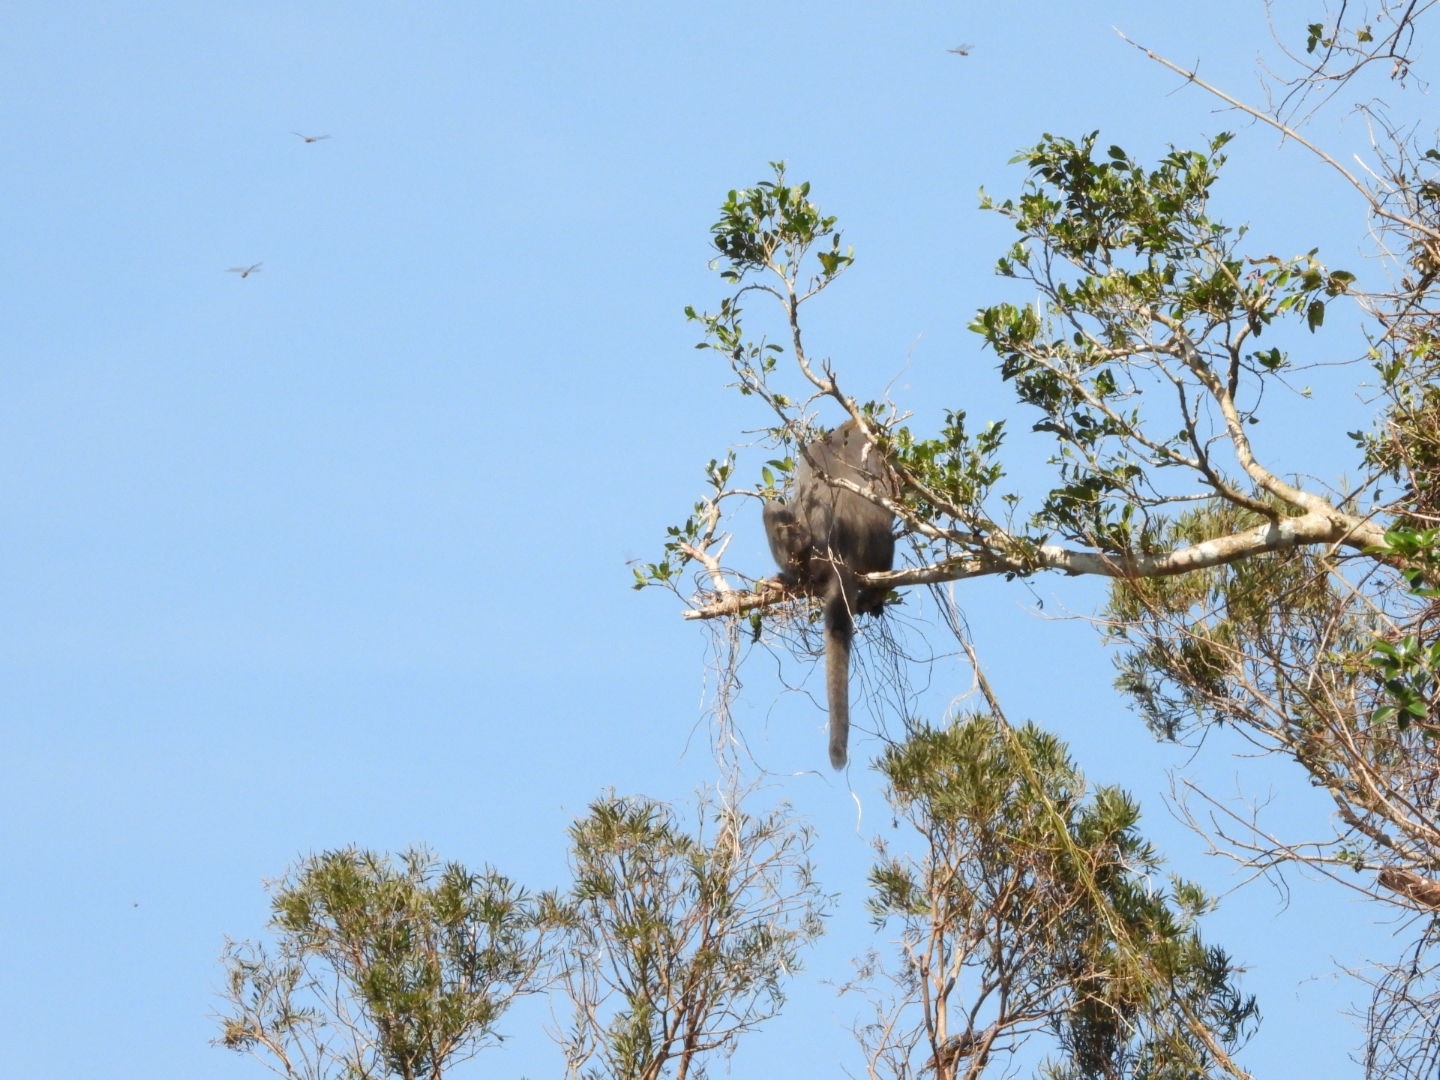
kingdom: Animalia
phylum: Chordata
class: Mammalia
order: Primates
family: Cercopithecidae
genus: Macaca
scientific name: Macaca cyclopis
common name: Formosan rock macaque
